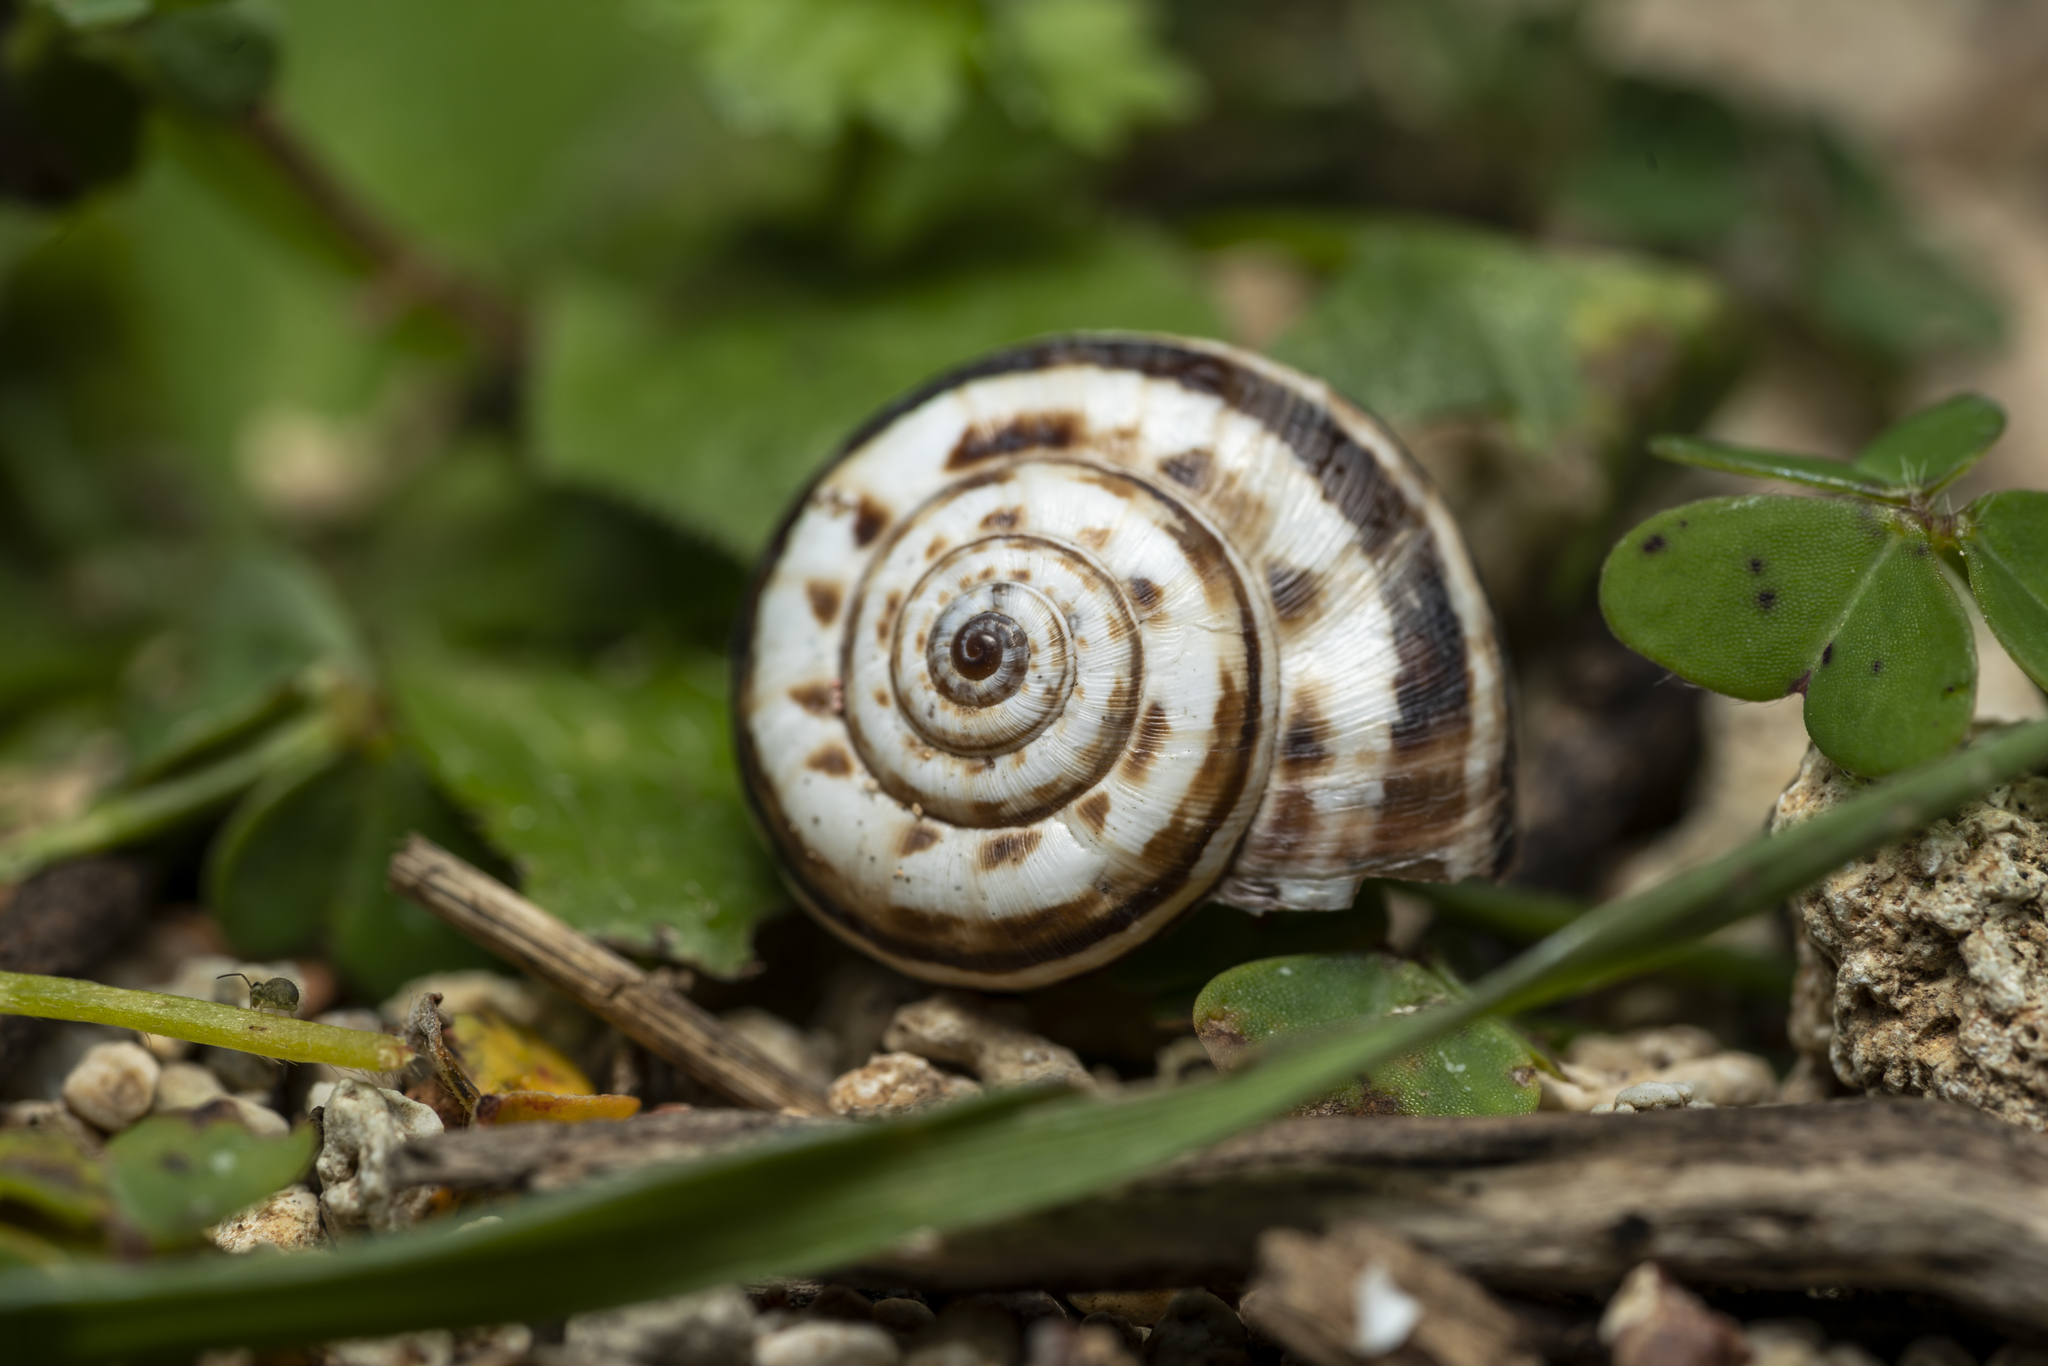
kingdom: Animalia
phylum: Mollusca
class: Gastropoda
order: Stylommatophora
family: Geomitridae
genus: Xeropicta
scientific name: Xeropicta krynickii
